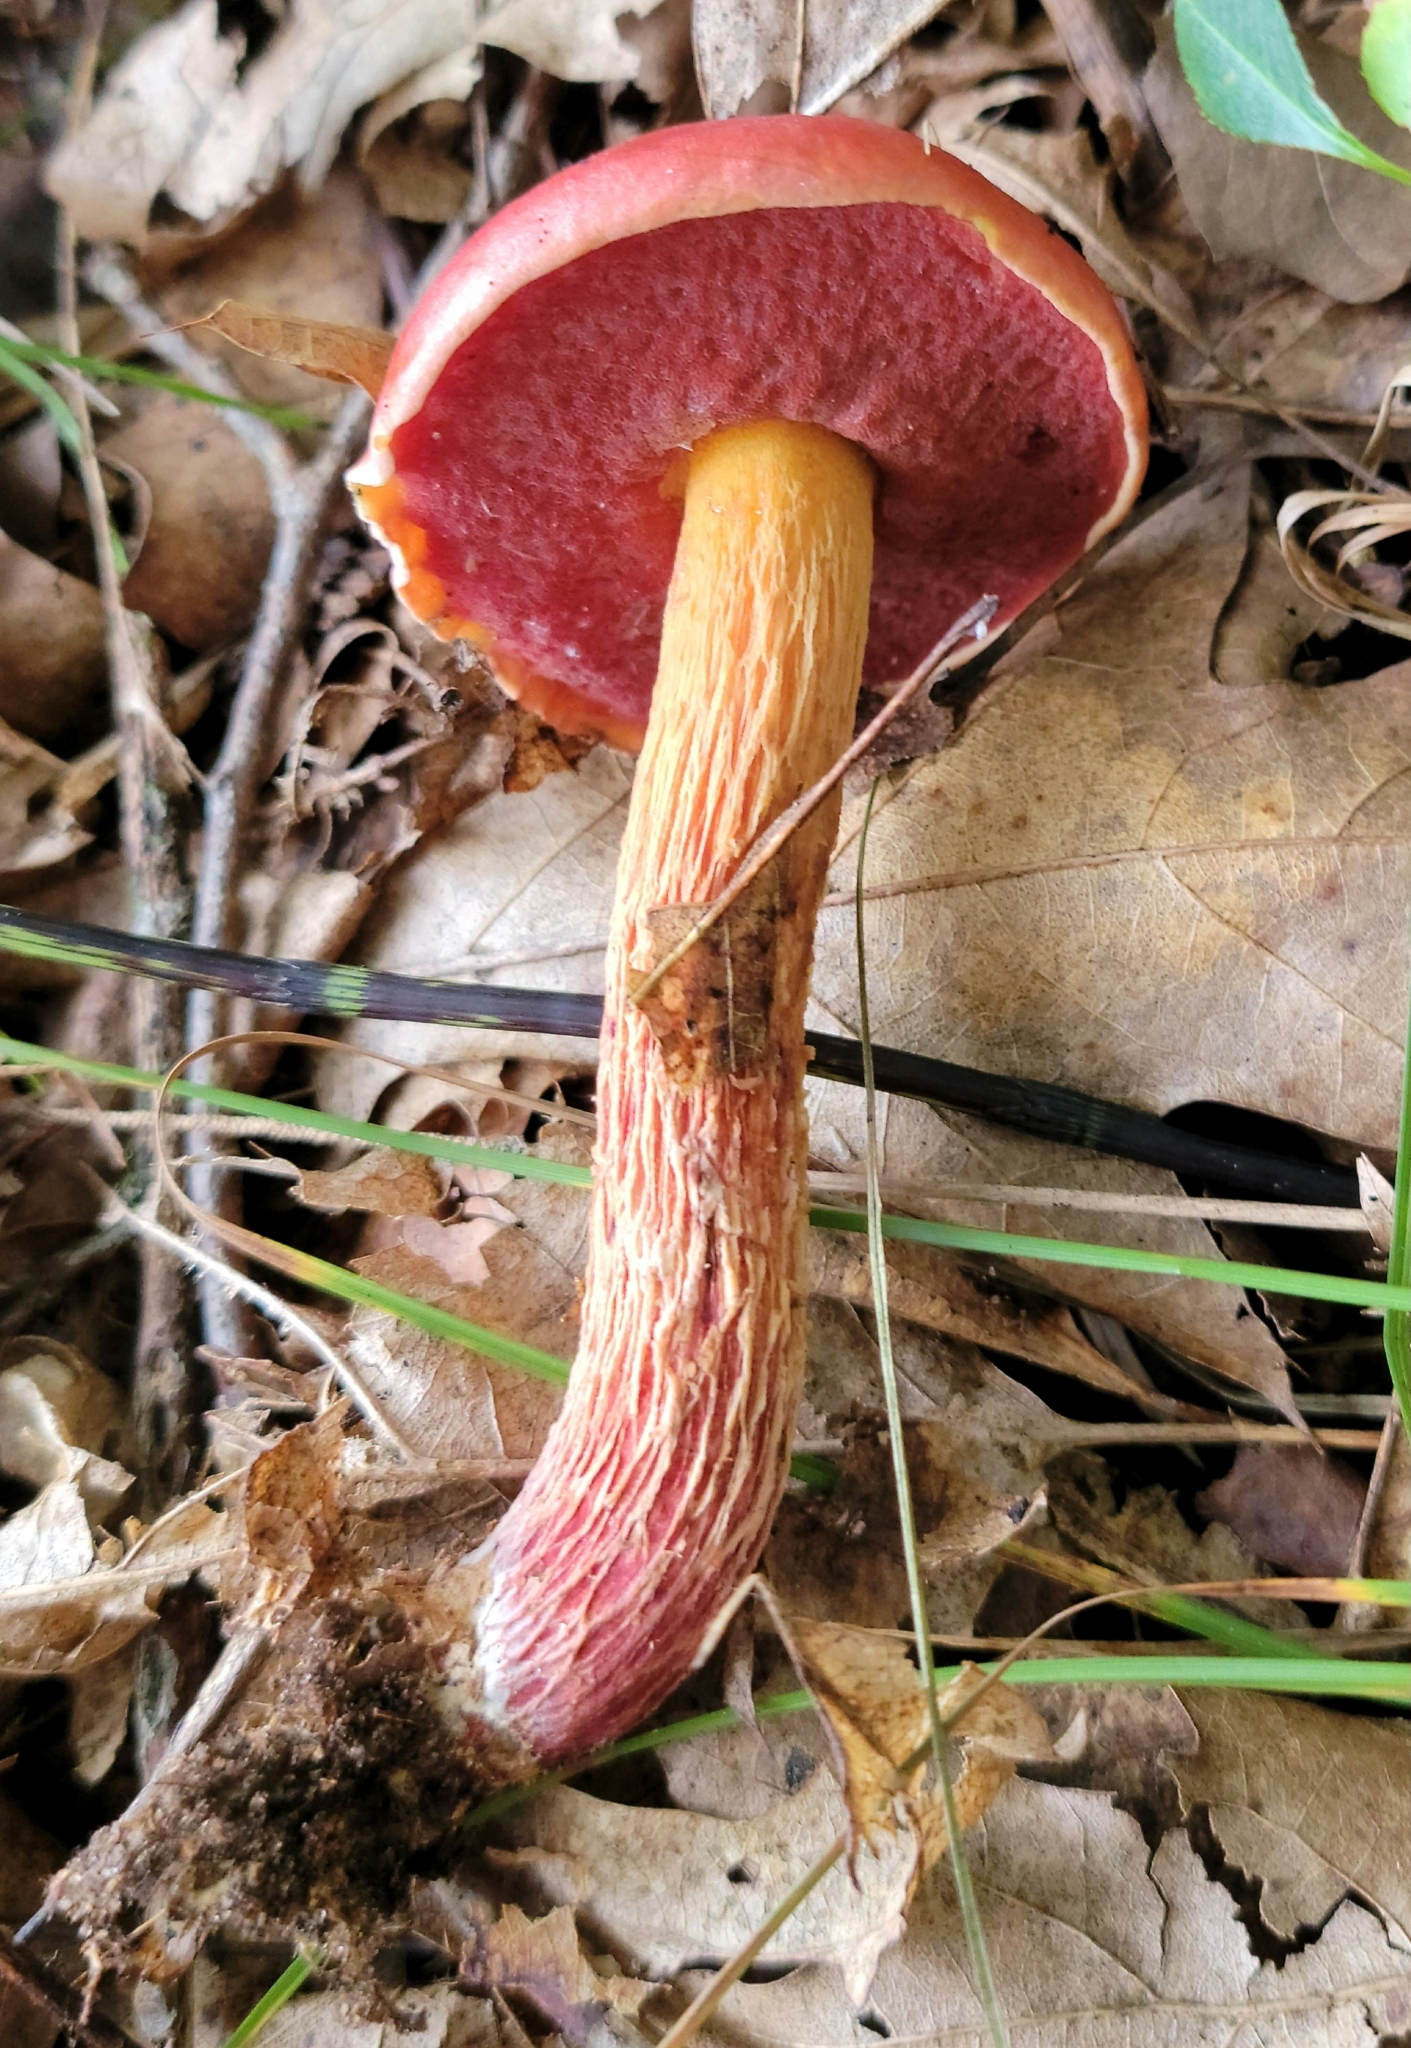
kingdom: Fungi
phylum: Basidiomycota
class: Agaricomycetes
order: Boletales
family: Boletaceae
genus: Butyriboletus
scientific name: Butyriboletus frostii
